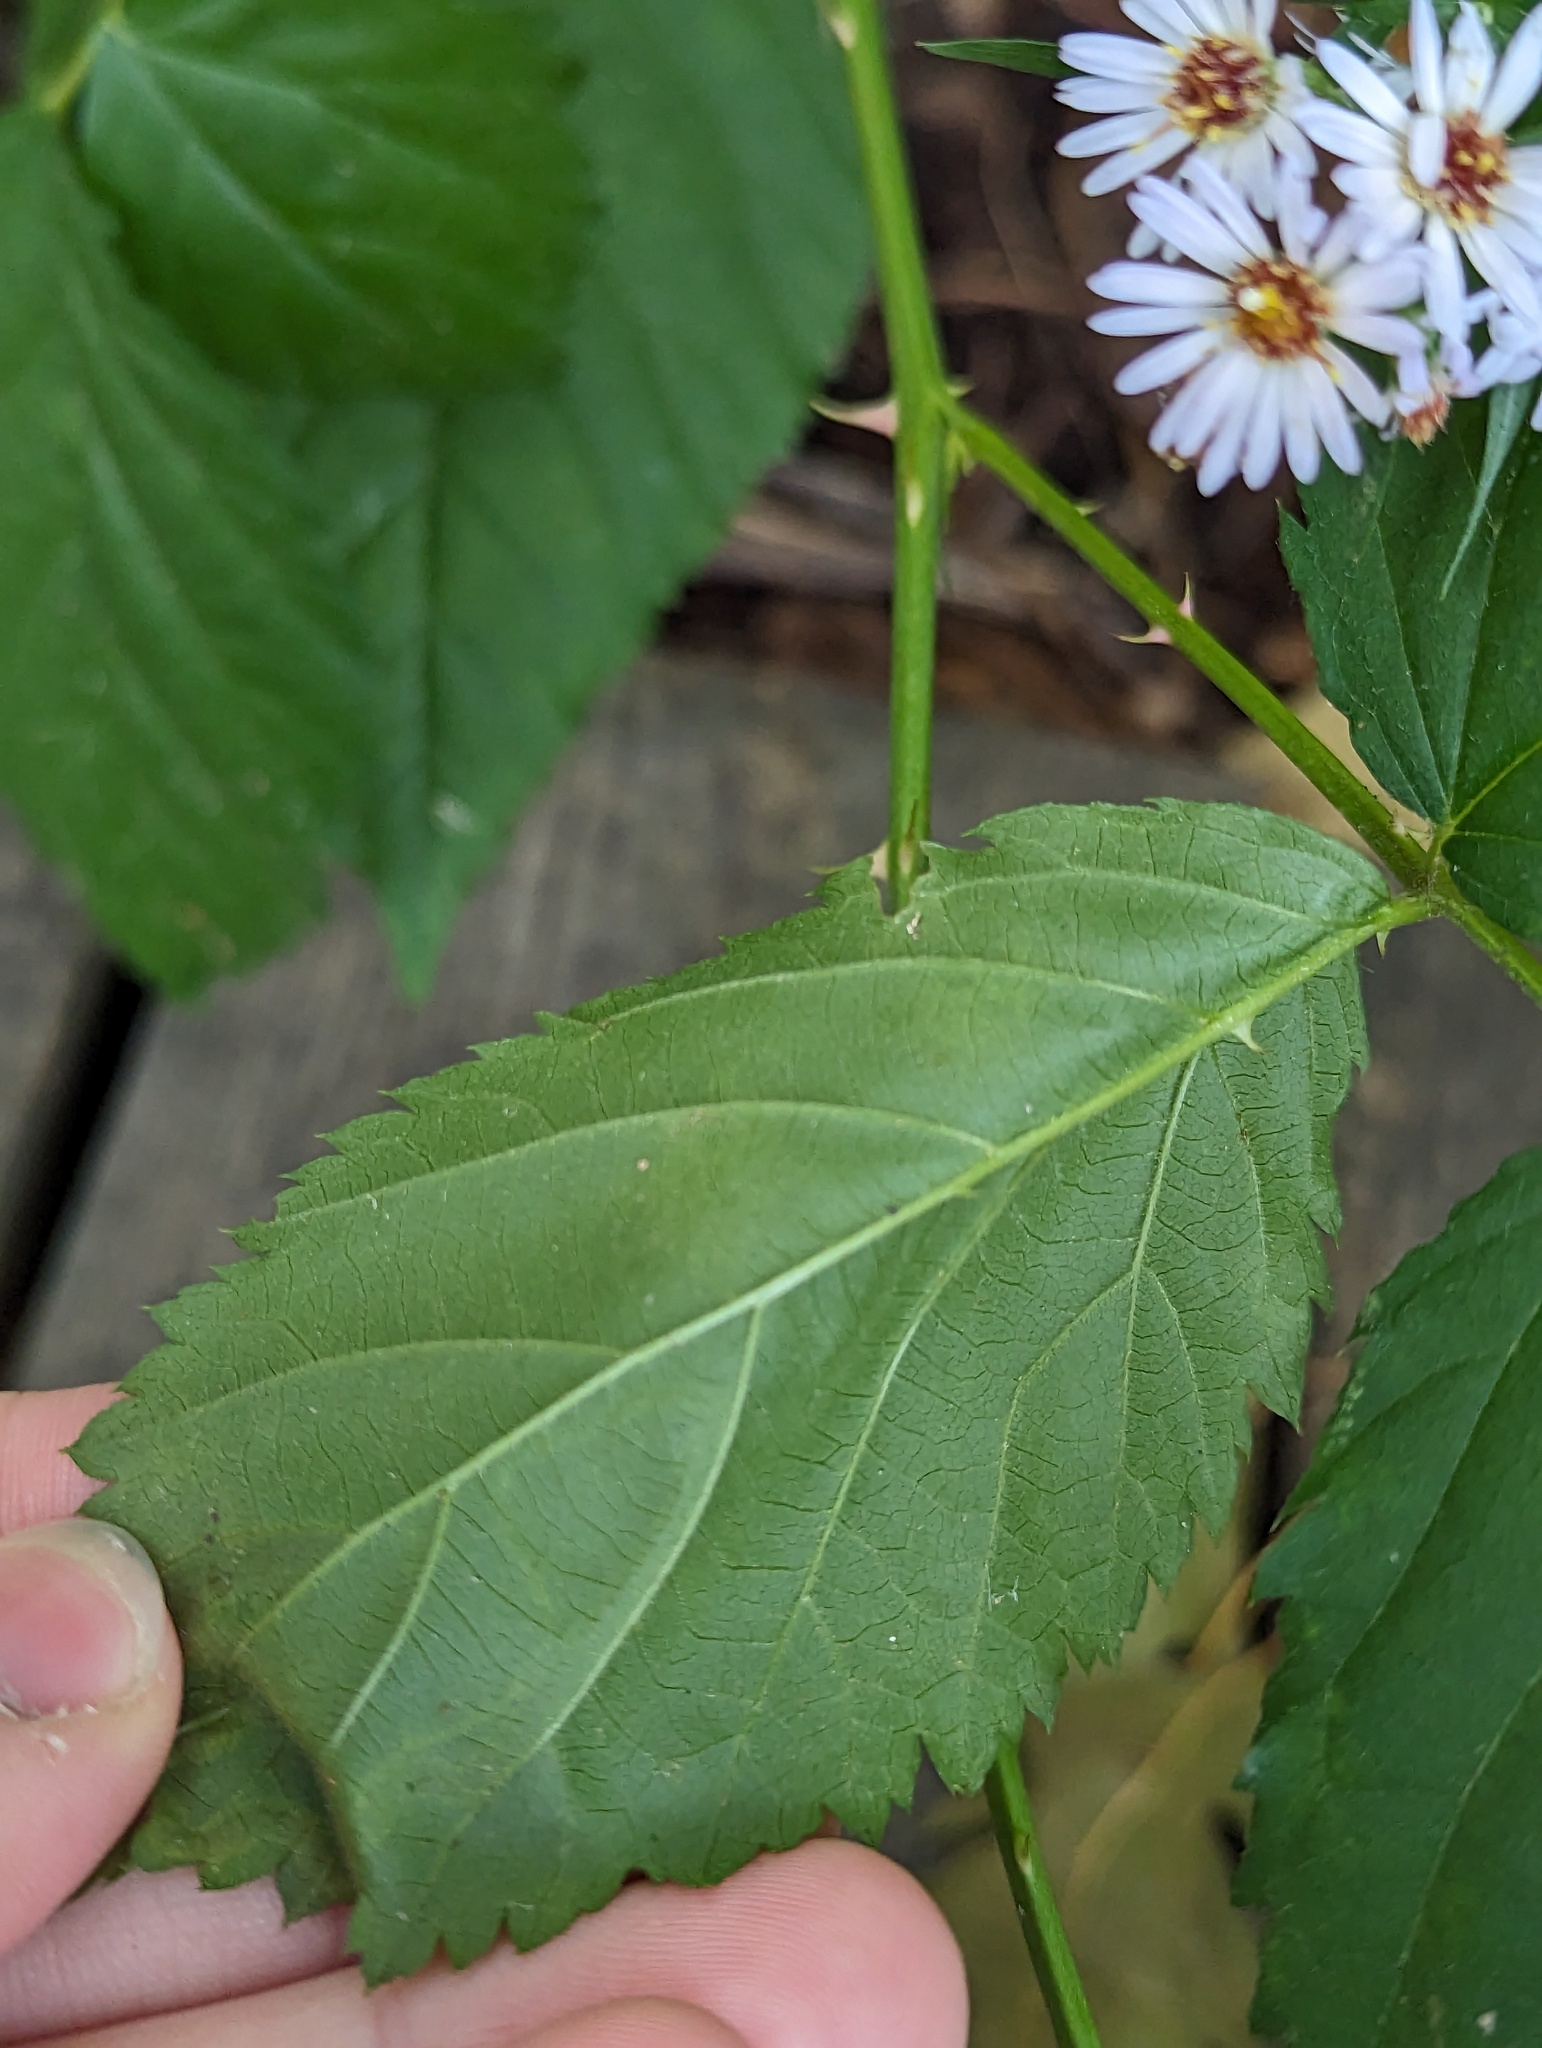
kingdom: Animalia
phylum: Arthropoda
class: Insecta
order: Diptera
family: Agromyzidae
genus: Agromyza
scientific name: Agromyza vockerothi
